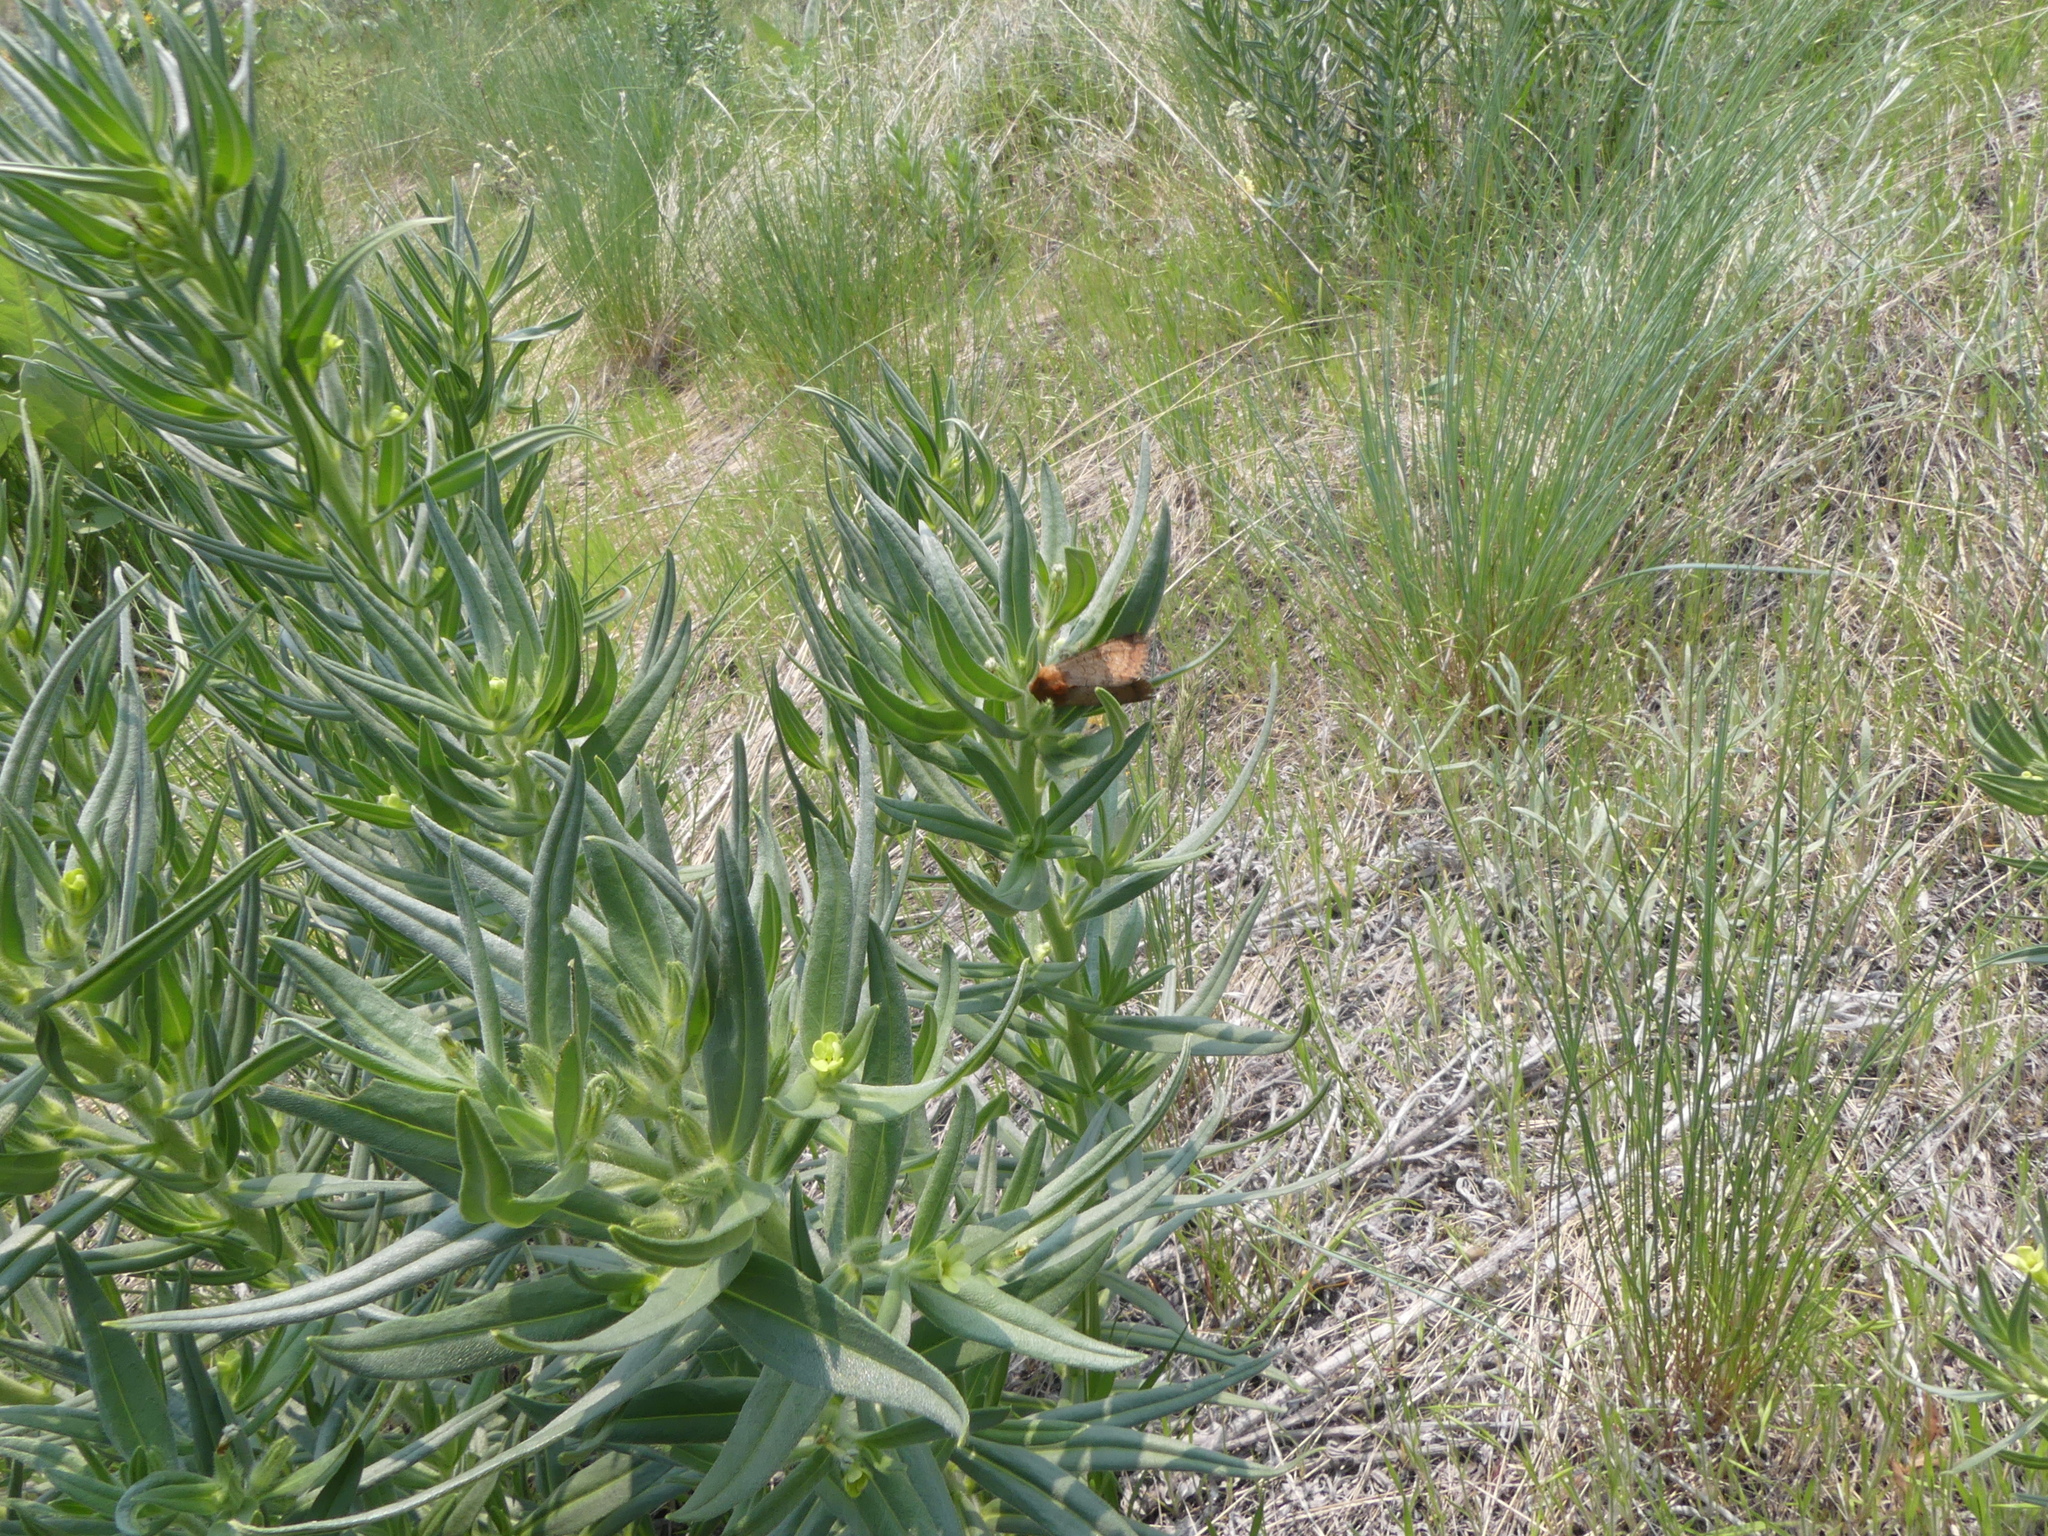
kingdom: Animalia
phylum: Arthropoda
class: Insecta
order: Lepidoptera
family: Noctuidae
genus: Sideridis
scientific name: Sideridis rosea
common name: Rosewing moth
